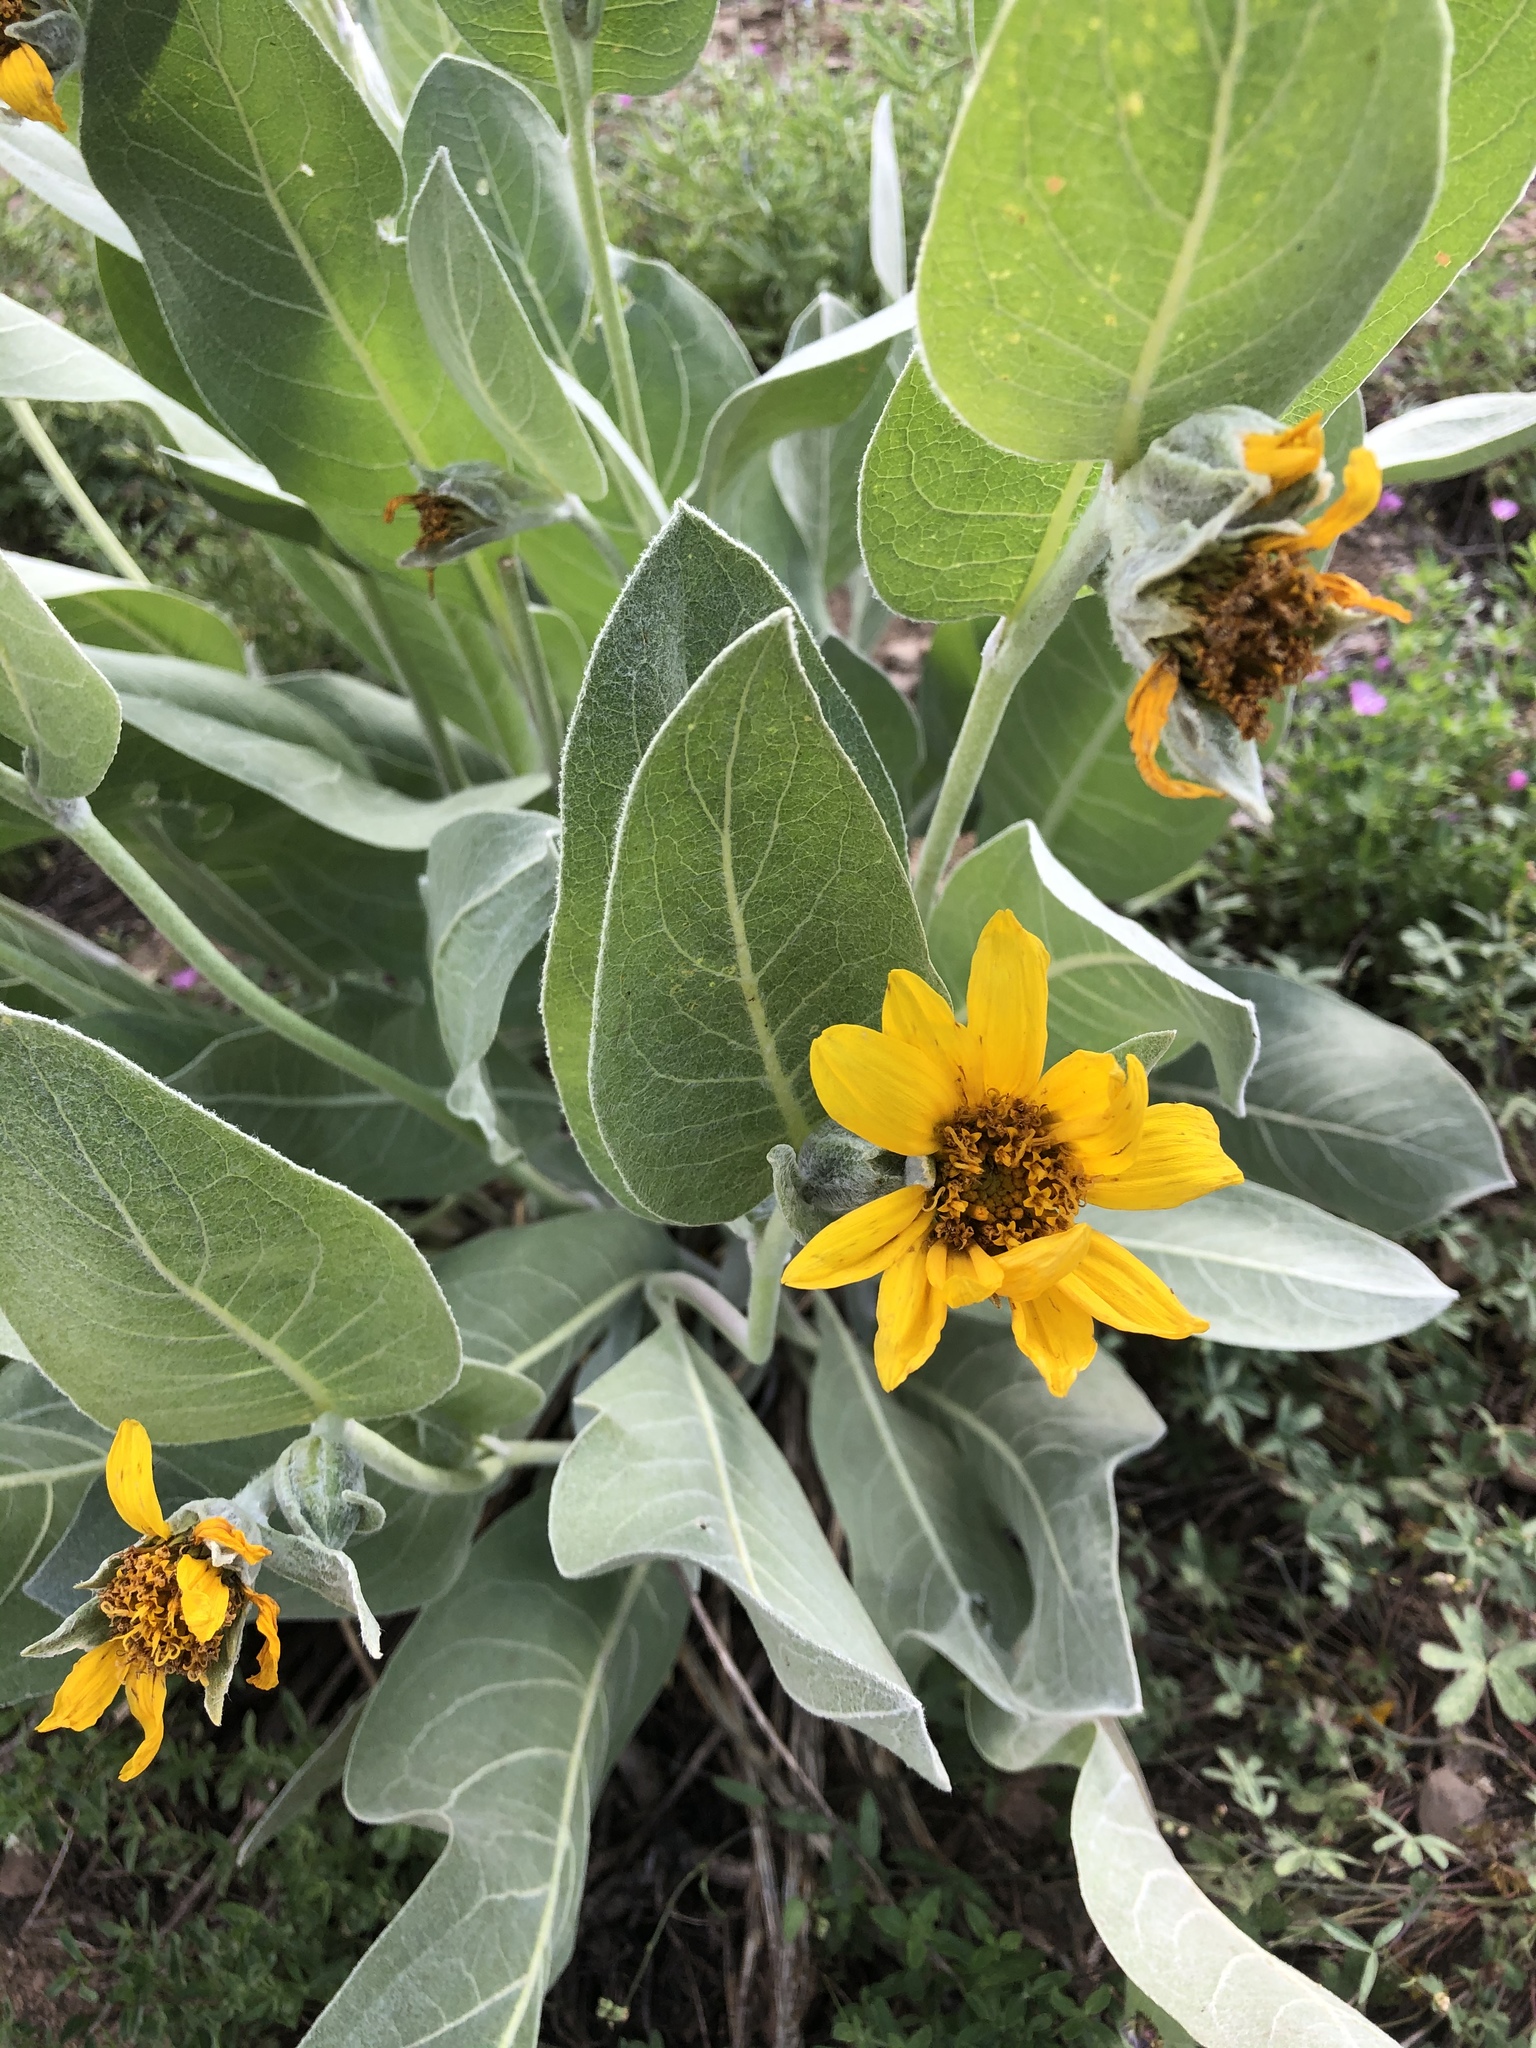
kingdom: Plantae
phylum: Tracheophyta
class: Magnoliopsida
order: Asterales
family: Asteraceae
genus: Wyethia
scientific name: Wyethia mollis
